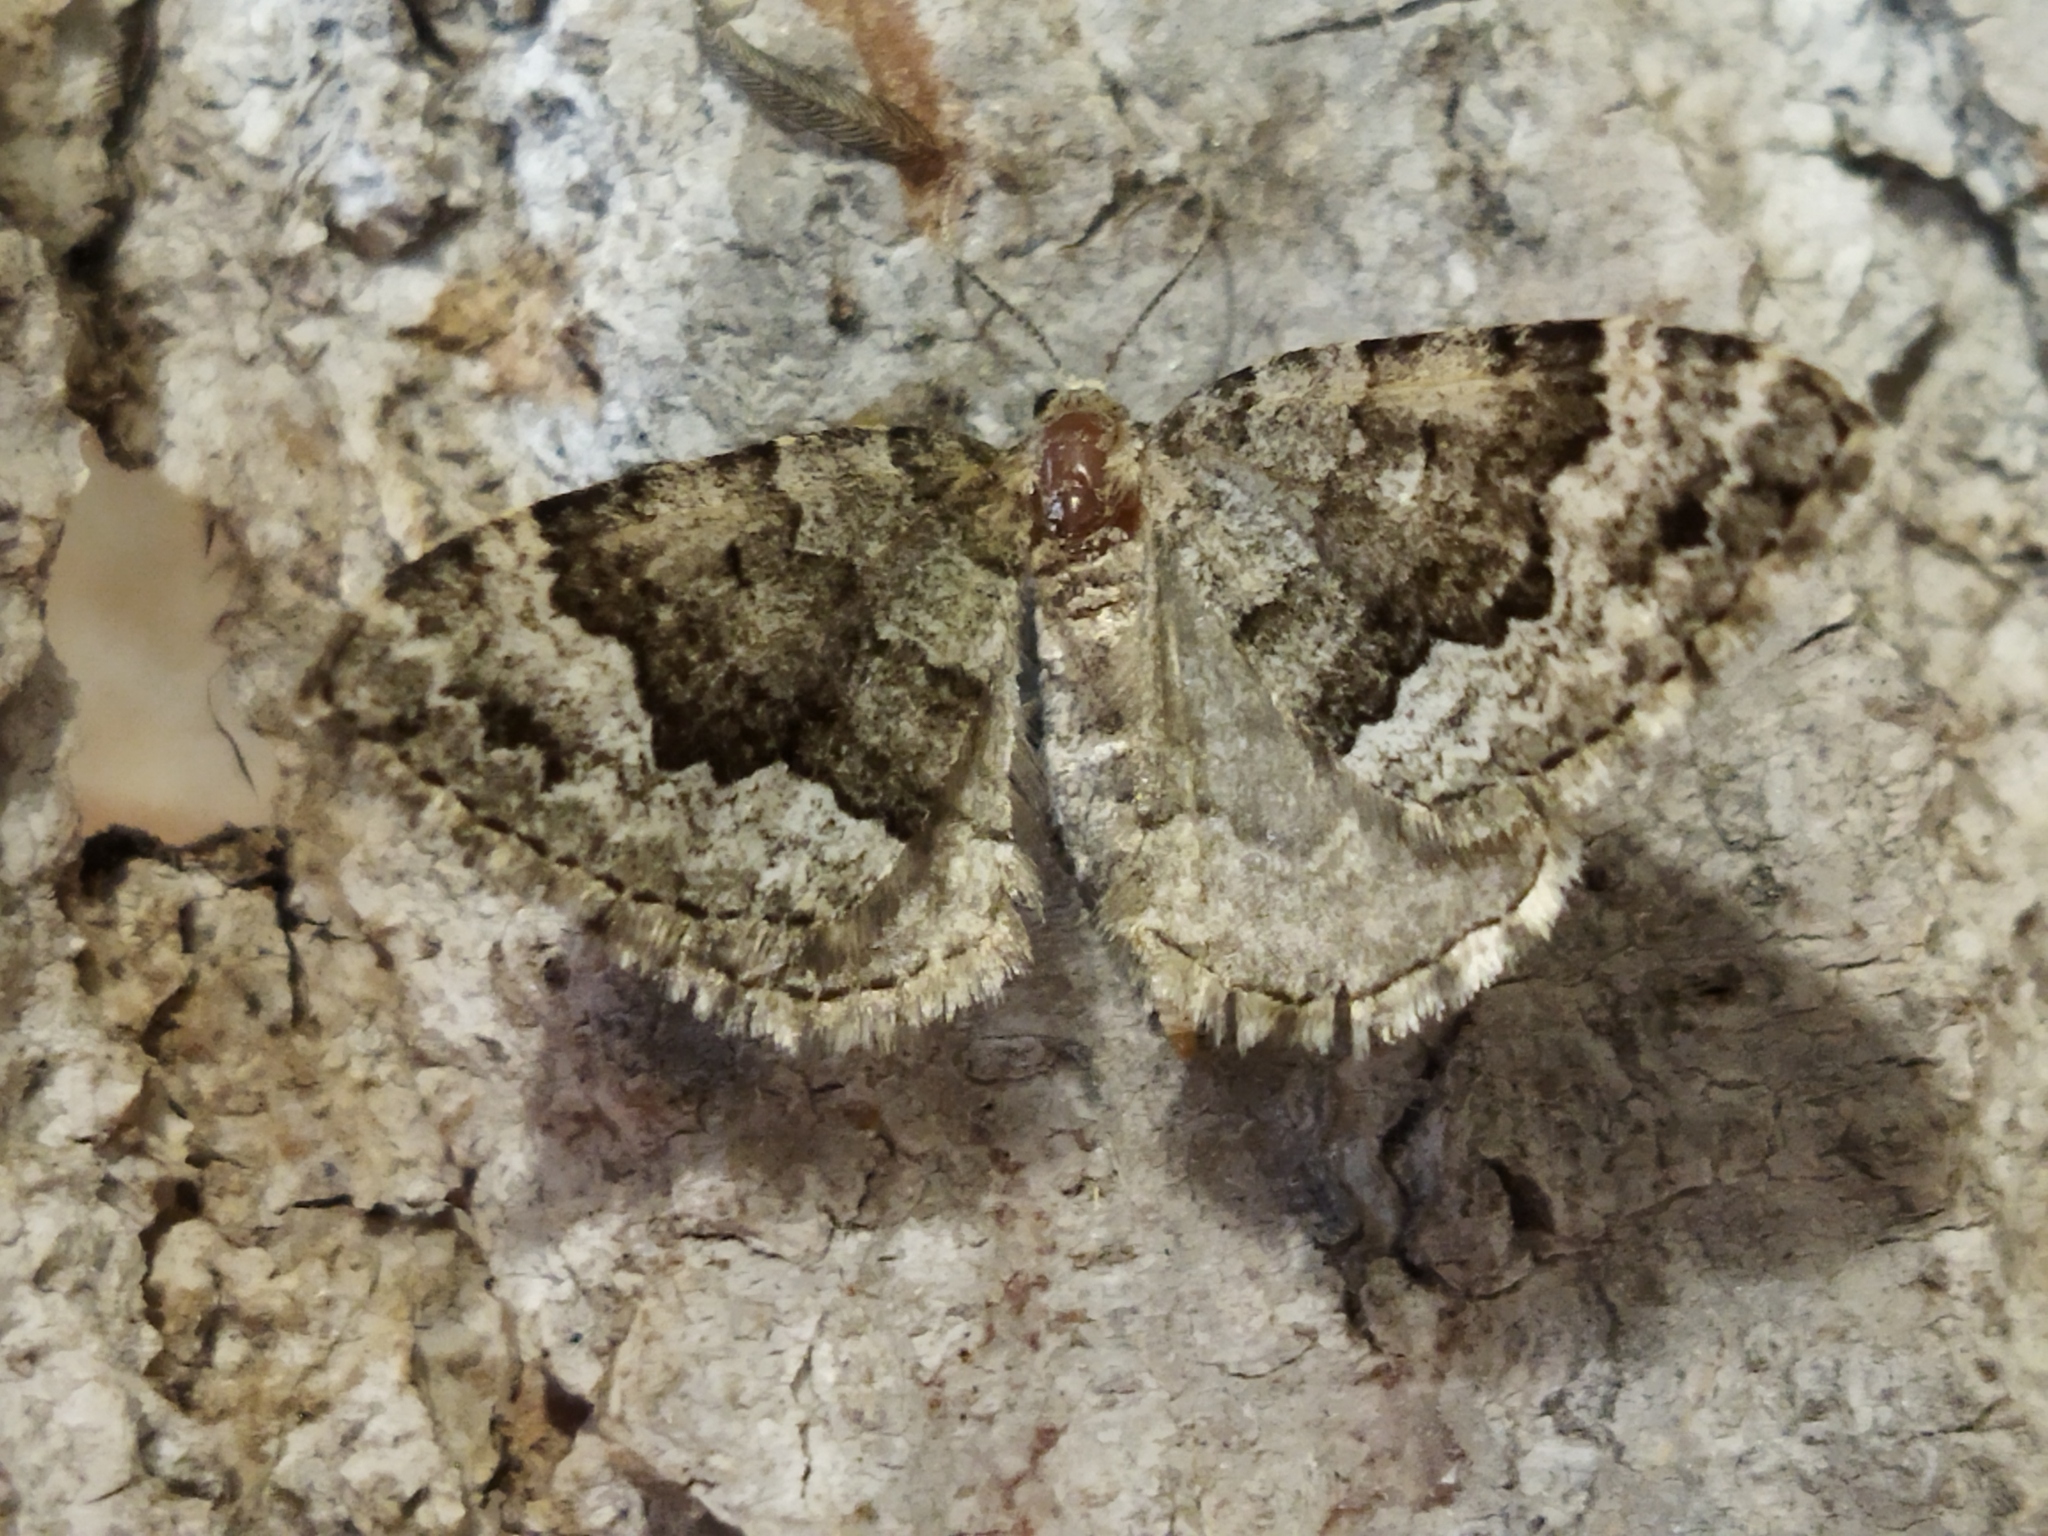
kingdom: Animalia
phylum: Arthropoda
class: Insecta
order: Lepidoptera
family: Geometridae
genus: Colostygia
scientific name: Colostygia aptata
